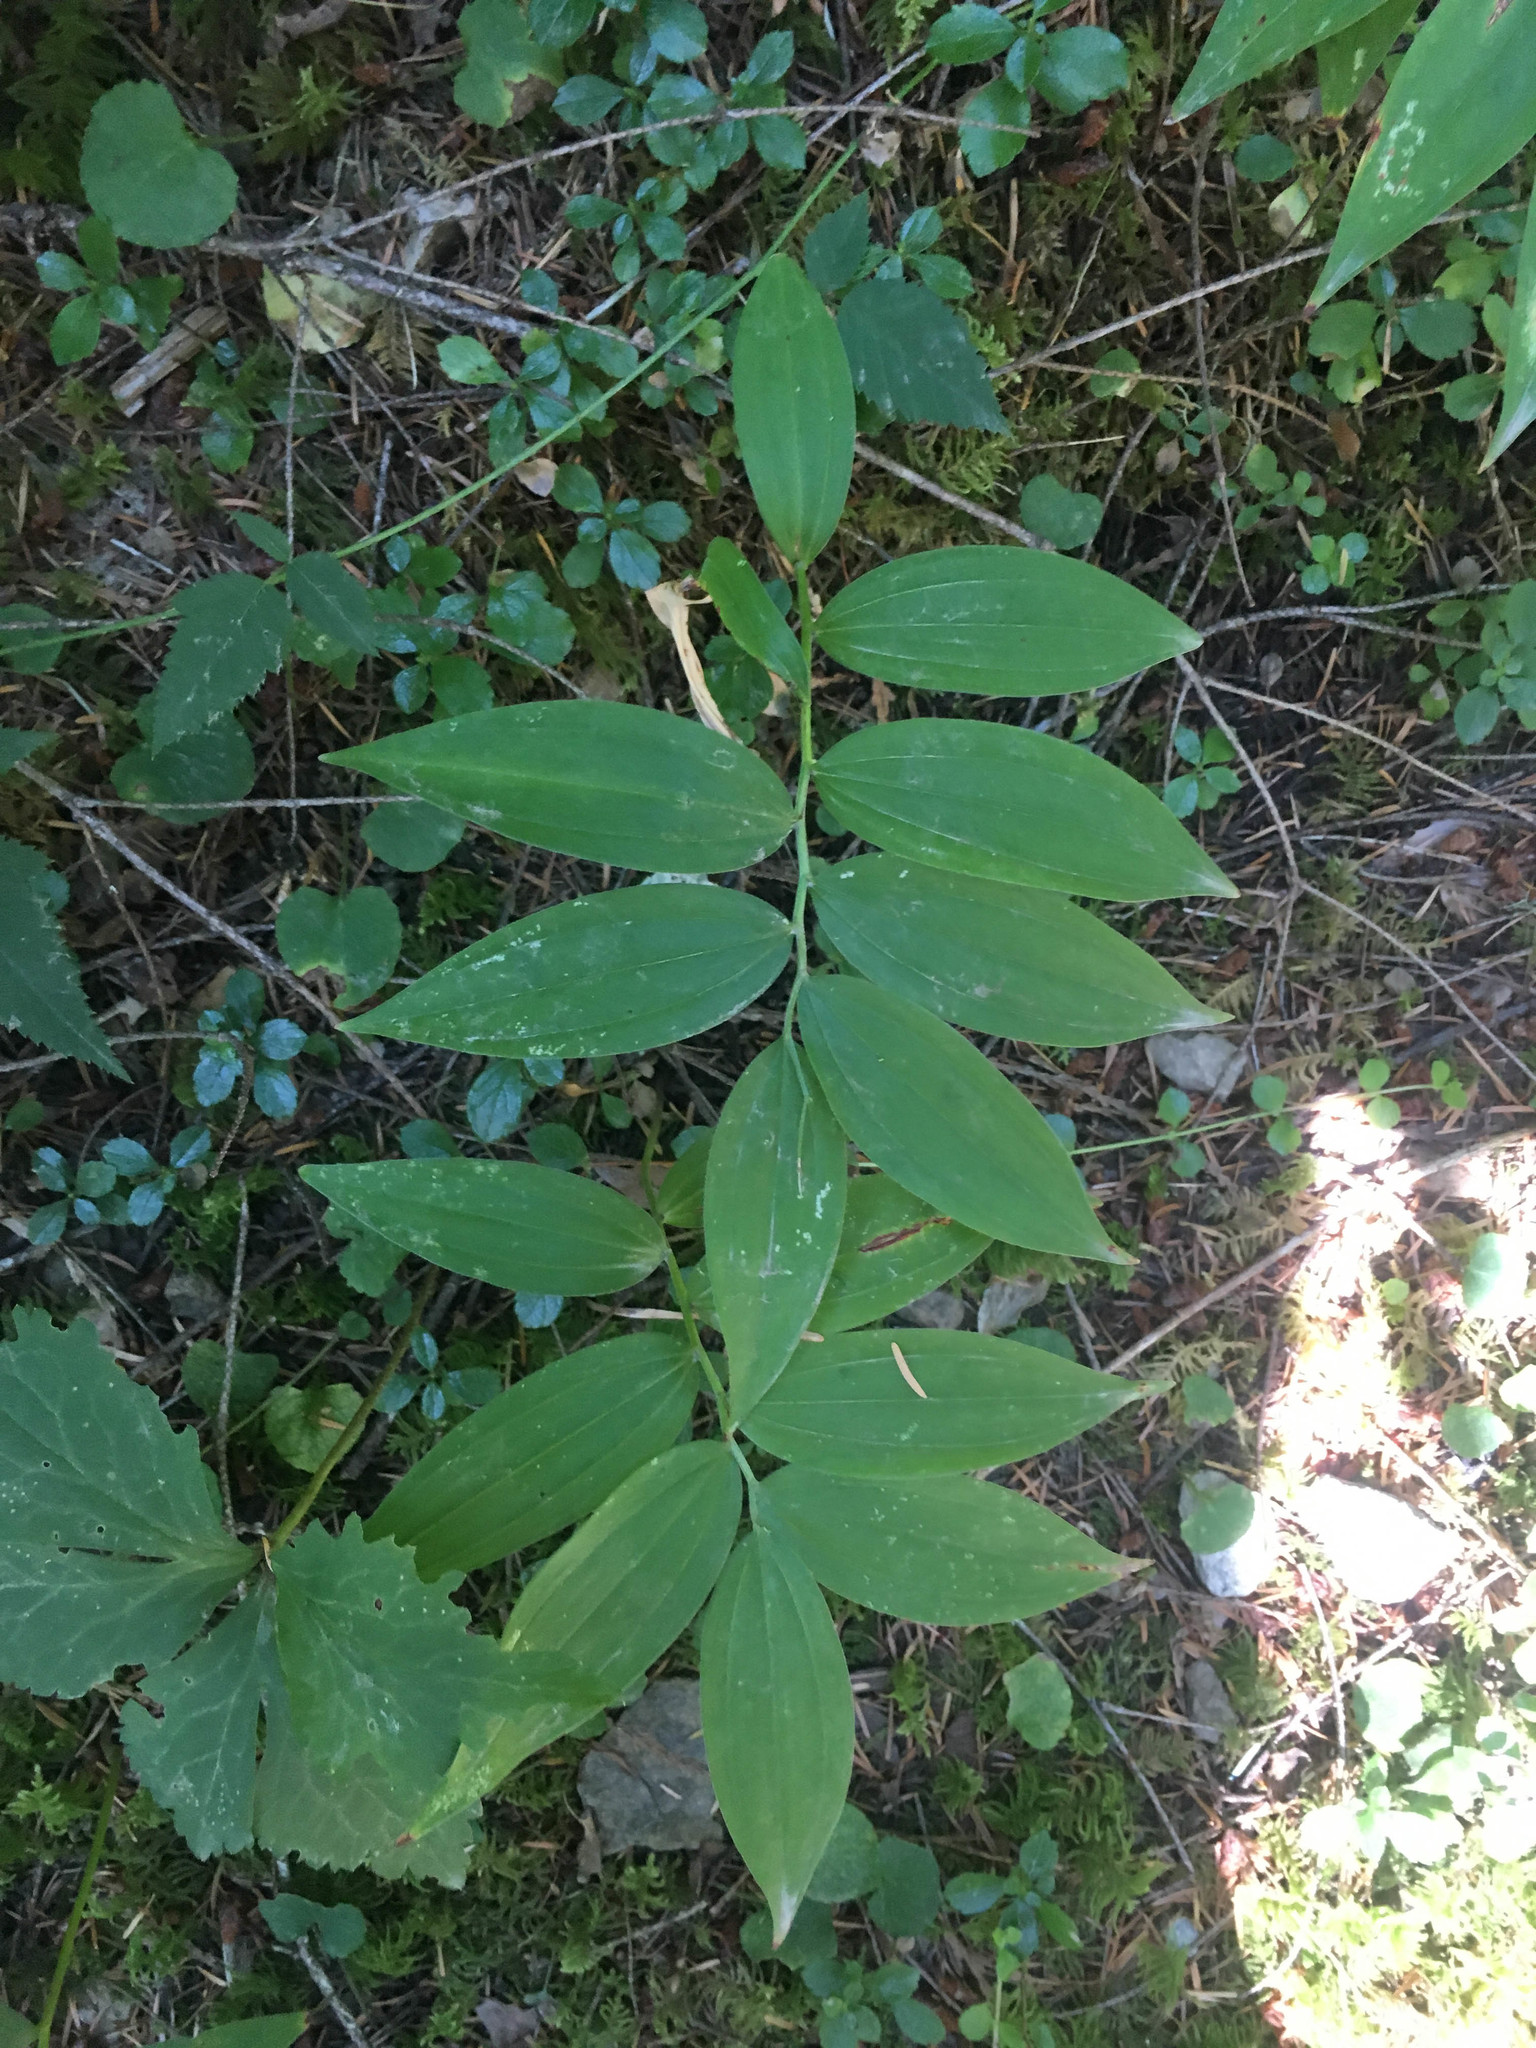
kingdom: Plantae
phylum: Tracheophyta
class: Liliopsida
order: Asparagales
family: Asparagaceae
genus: Maianthemum
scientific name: Maianthemum stellatum
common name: Little false solomon's seal
